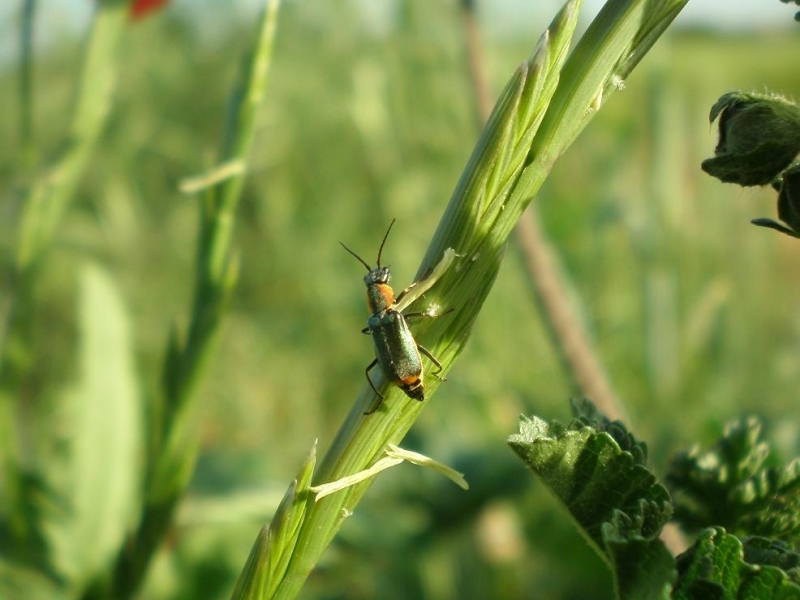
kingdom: Animalia
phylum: Arthropoda
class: Insecta
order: Coleoptera
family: Malachiidae
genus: Clanoptilus
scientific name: Clanoptilus marginellus
